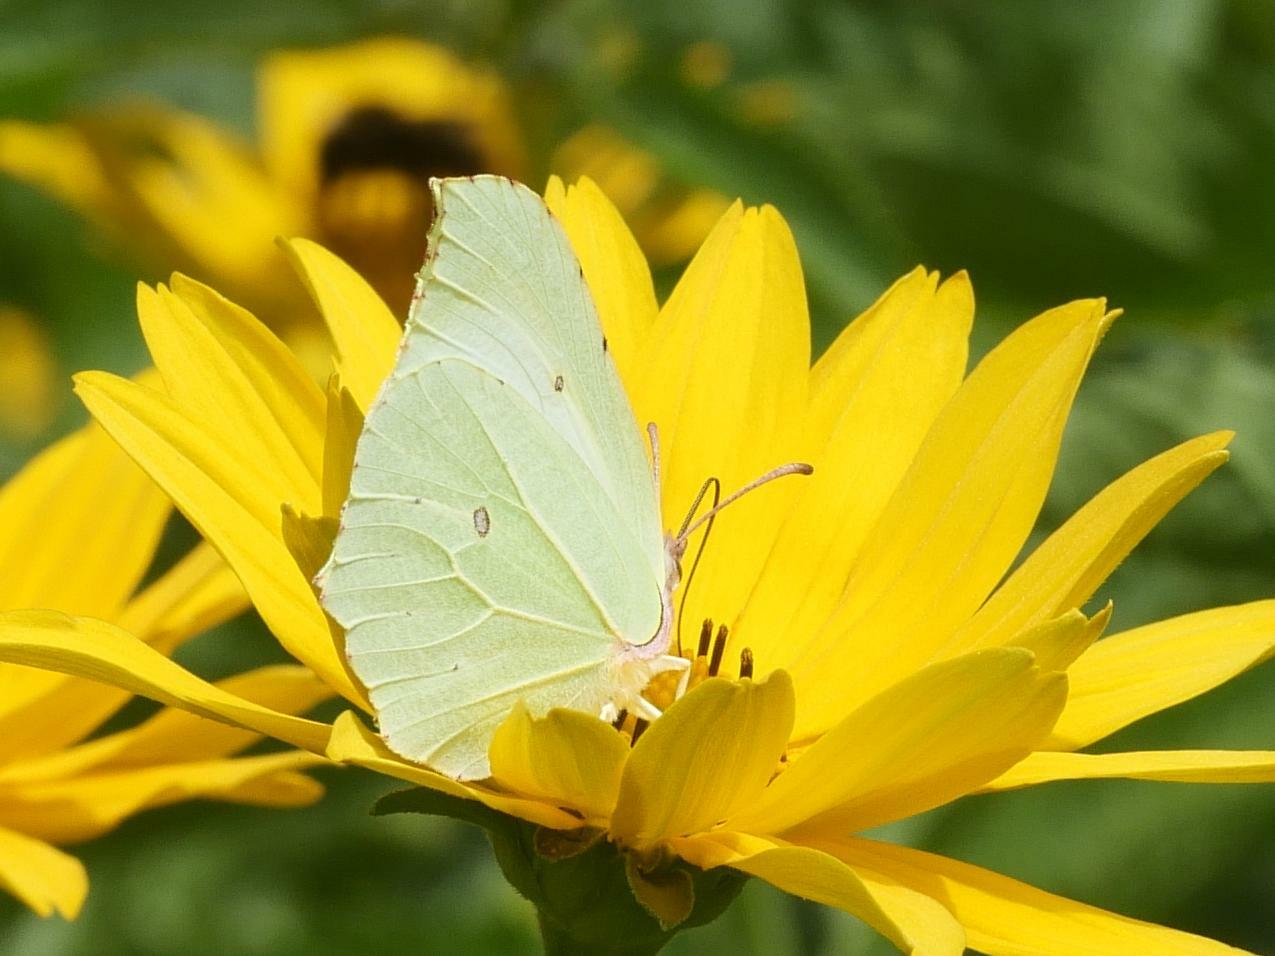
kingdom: Animalia
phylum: Arthropoda
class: Insecta
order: Lepidoptera
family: Pieridae
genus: Gonepteryx
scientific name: Gonepteryx rhamni
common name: Brimstone
